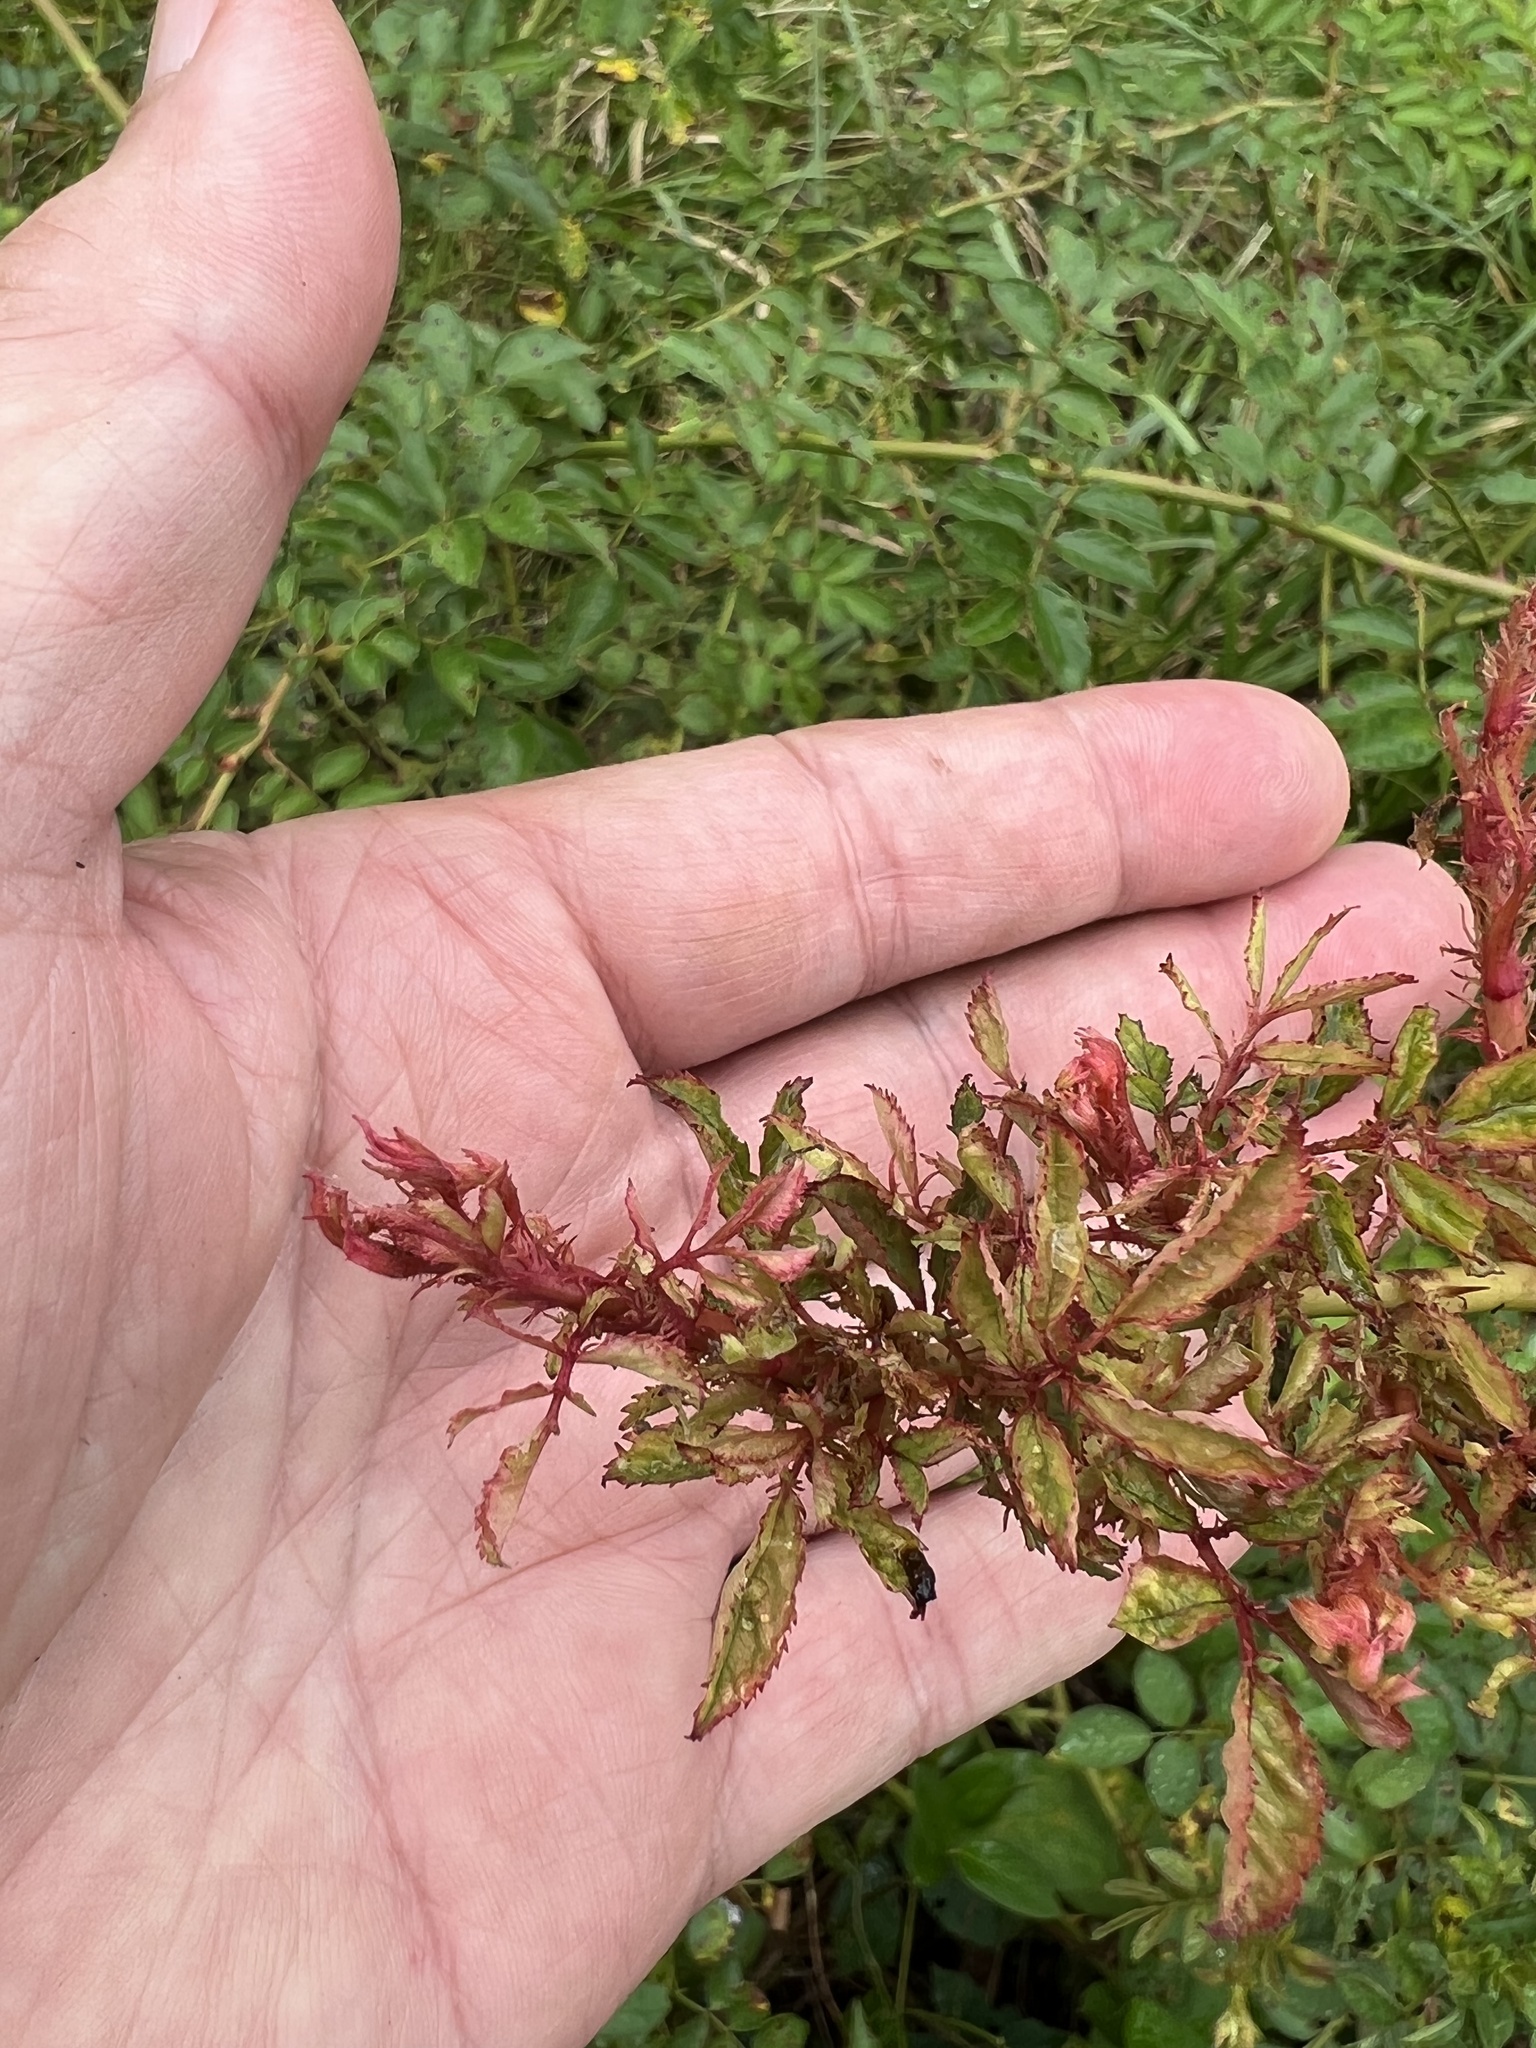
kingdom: Viruses
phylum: Negarnaviricota
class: Ellioviricetes
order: Bunyavirales
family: Fimoviridae
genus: Emaravirus
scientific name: Emaravirus rosae
